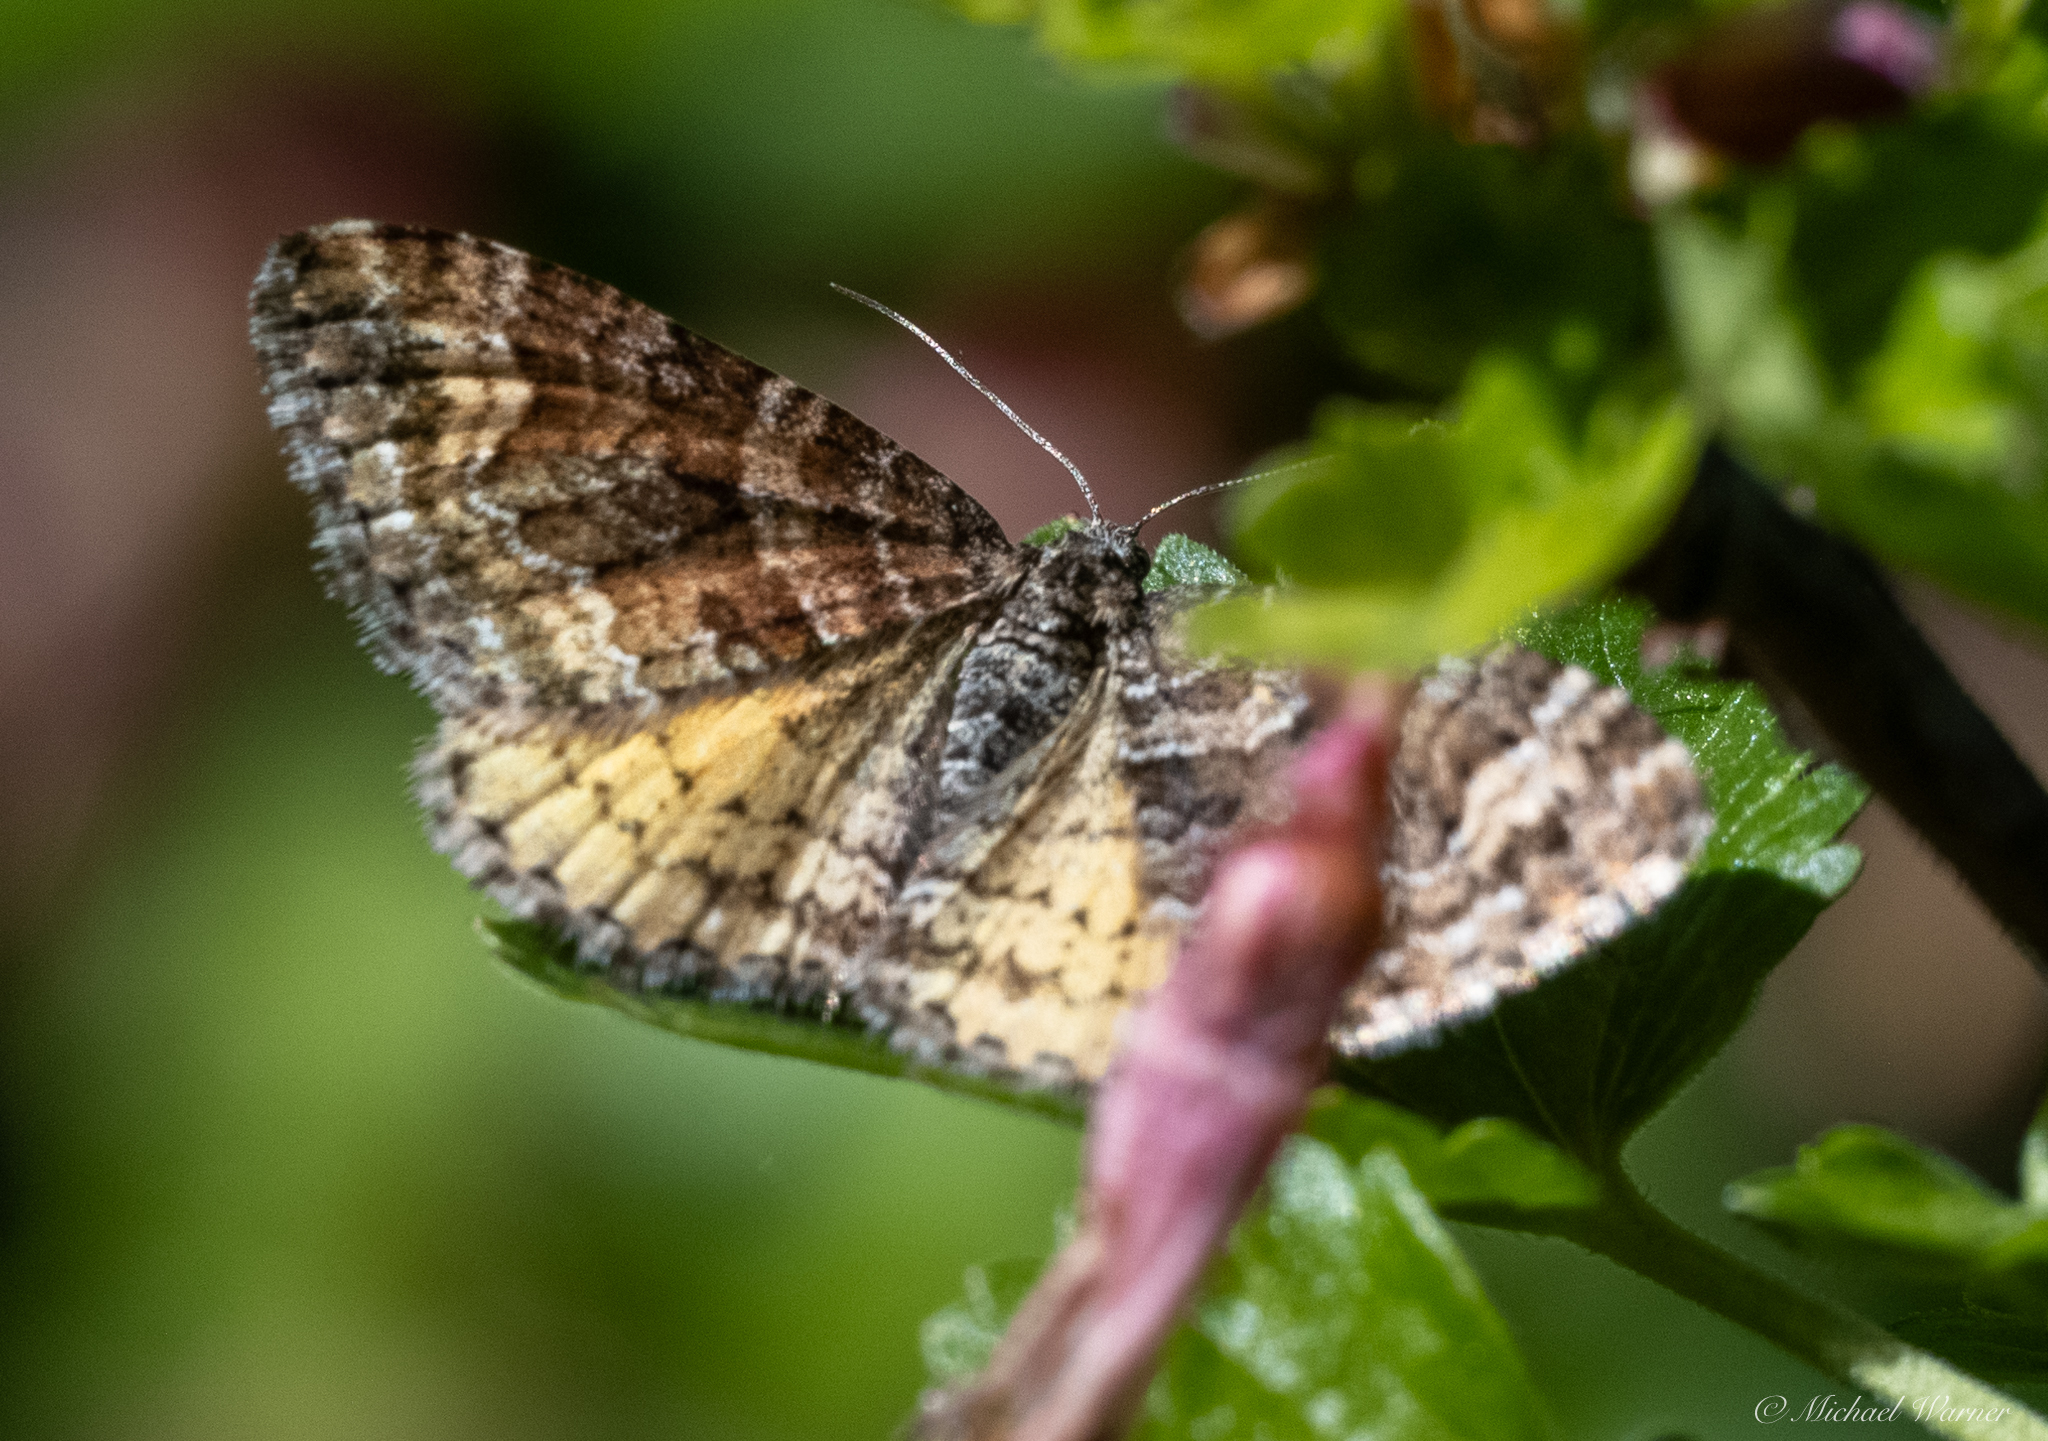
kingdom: Animalia
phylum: Arthropoda
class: Insecta
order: Lepidoptera
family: Geometridae
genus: Epirrhoe
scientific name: Epirrhoe plebeculata
